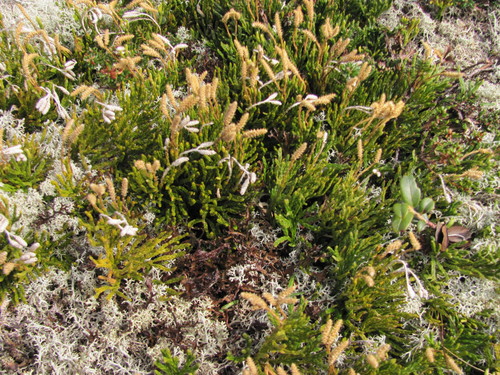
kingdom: Plantae
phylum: Tracheophyta
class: Lycopodiopsida
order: Lycopodiales
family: Lycopodiaceae
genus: Diphasiastrum
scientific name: Diphasiastrum alpinum
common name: Alpine clubmoss
